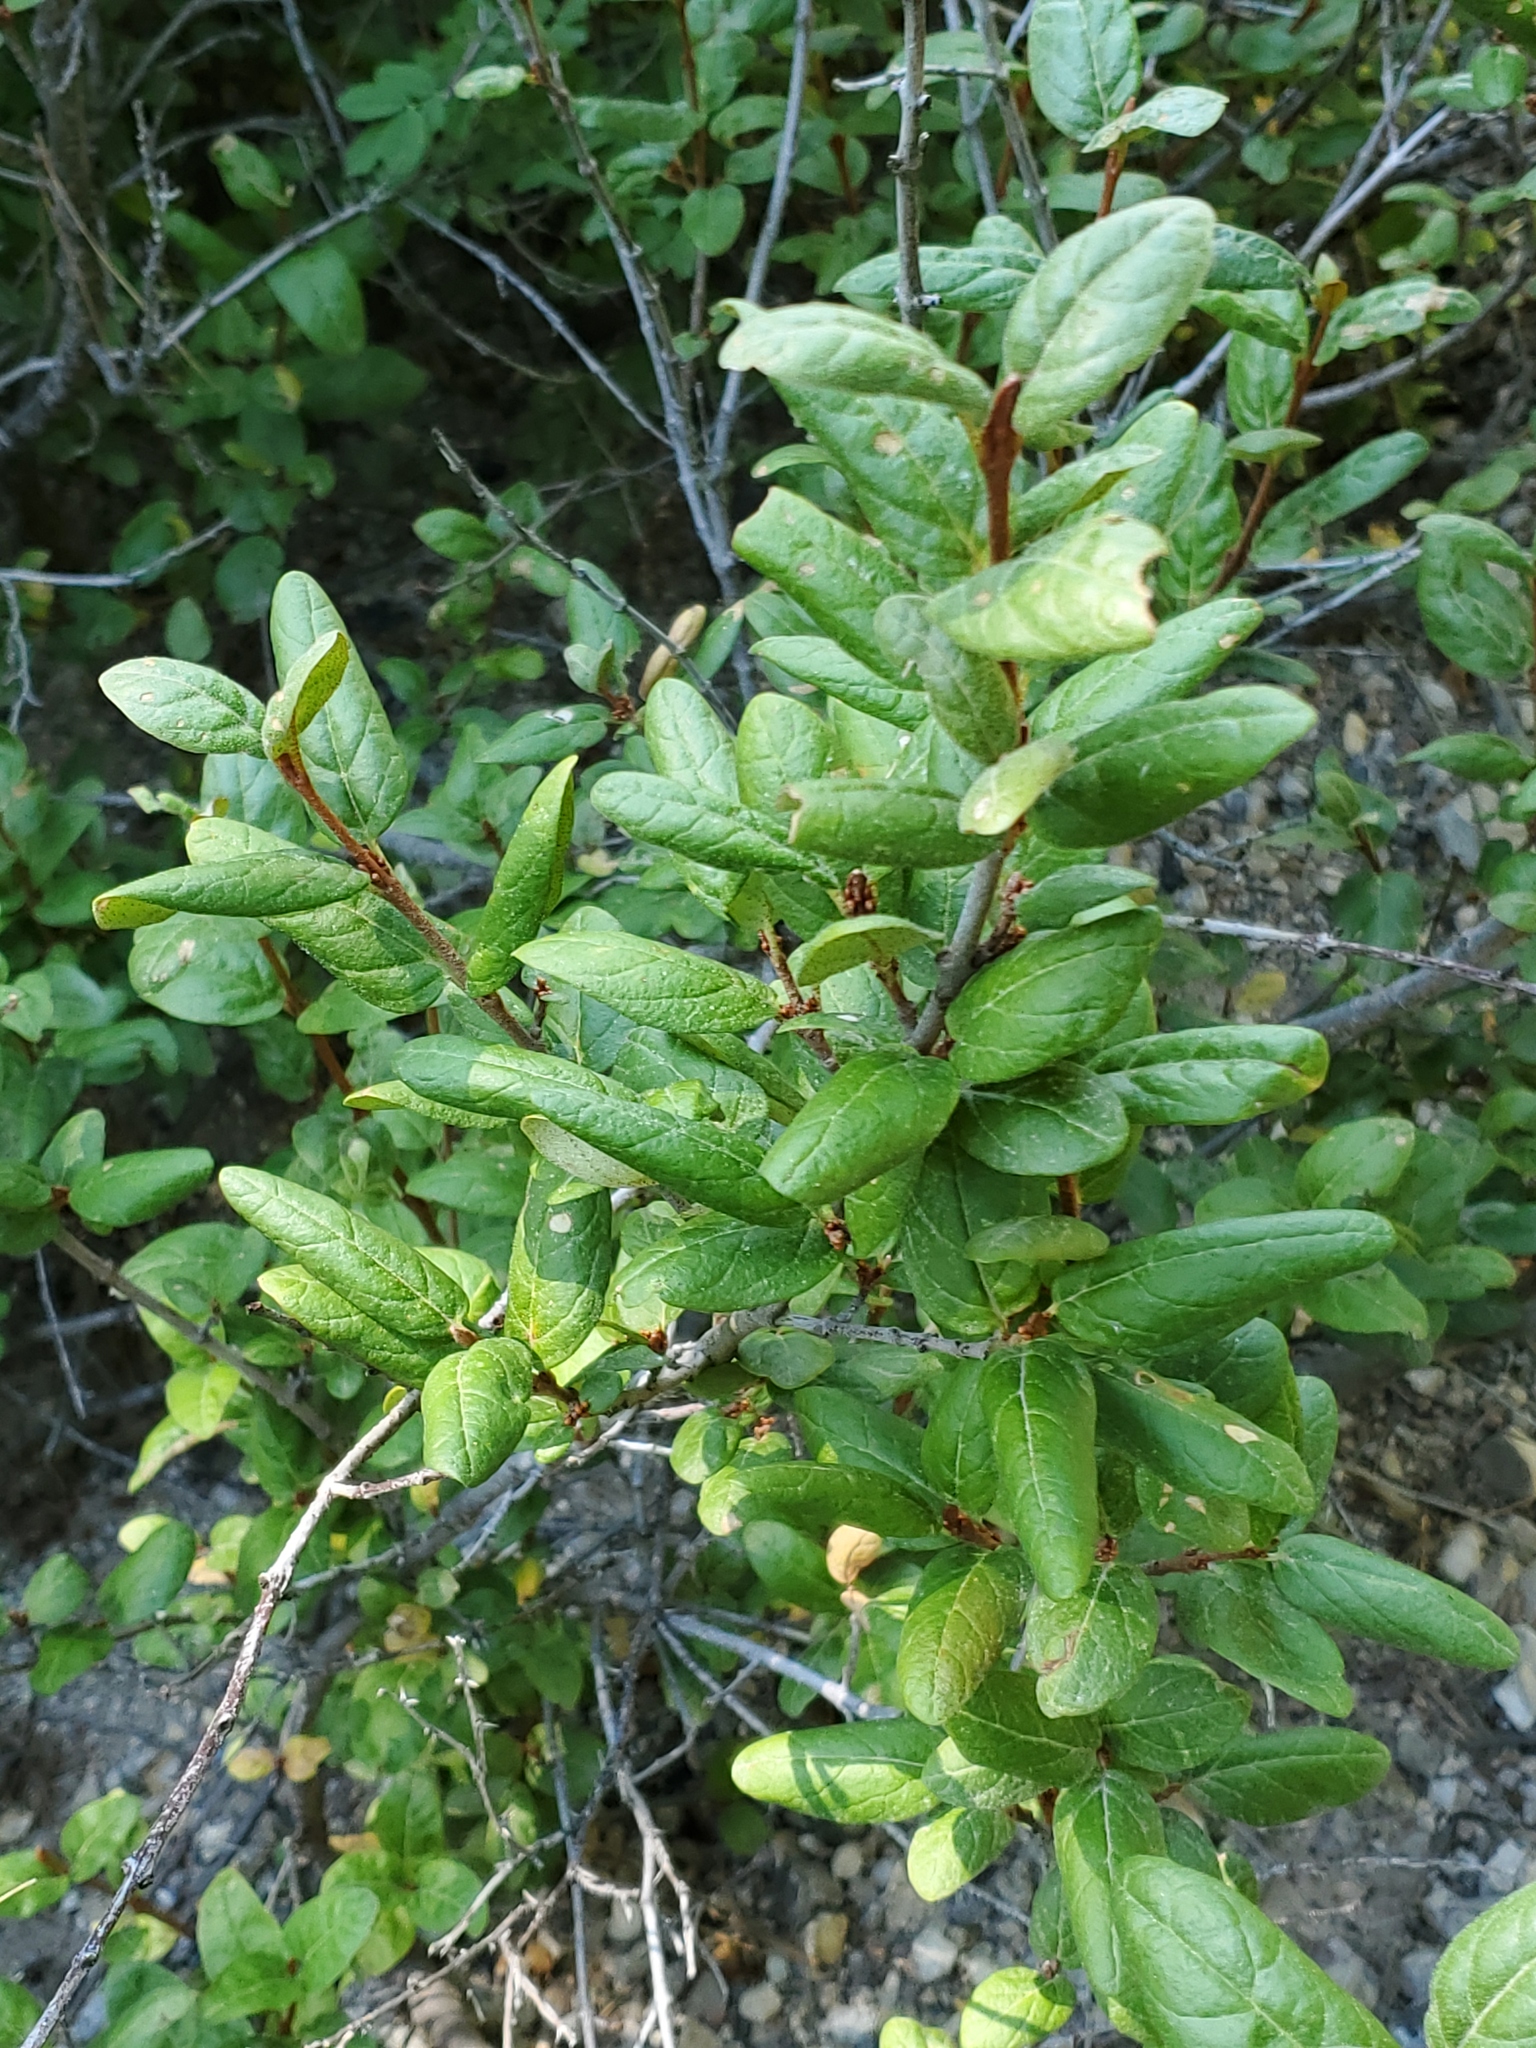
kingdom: Plantae
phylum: Tracheophyta
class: Magnoliopsida
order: Rosales
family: Elaeagnaceae
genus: Shepherdia
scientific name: Shepherdia canadensis
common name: Soapberry
